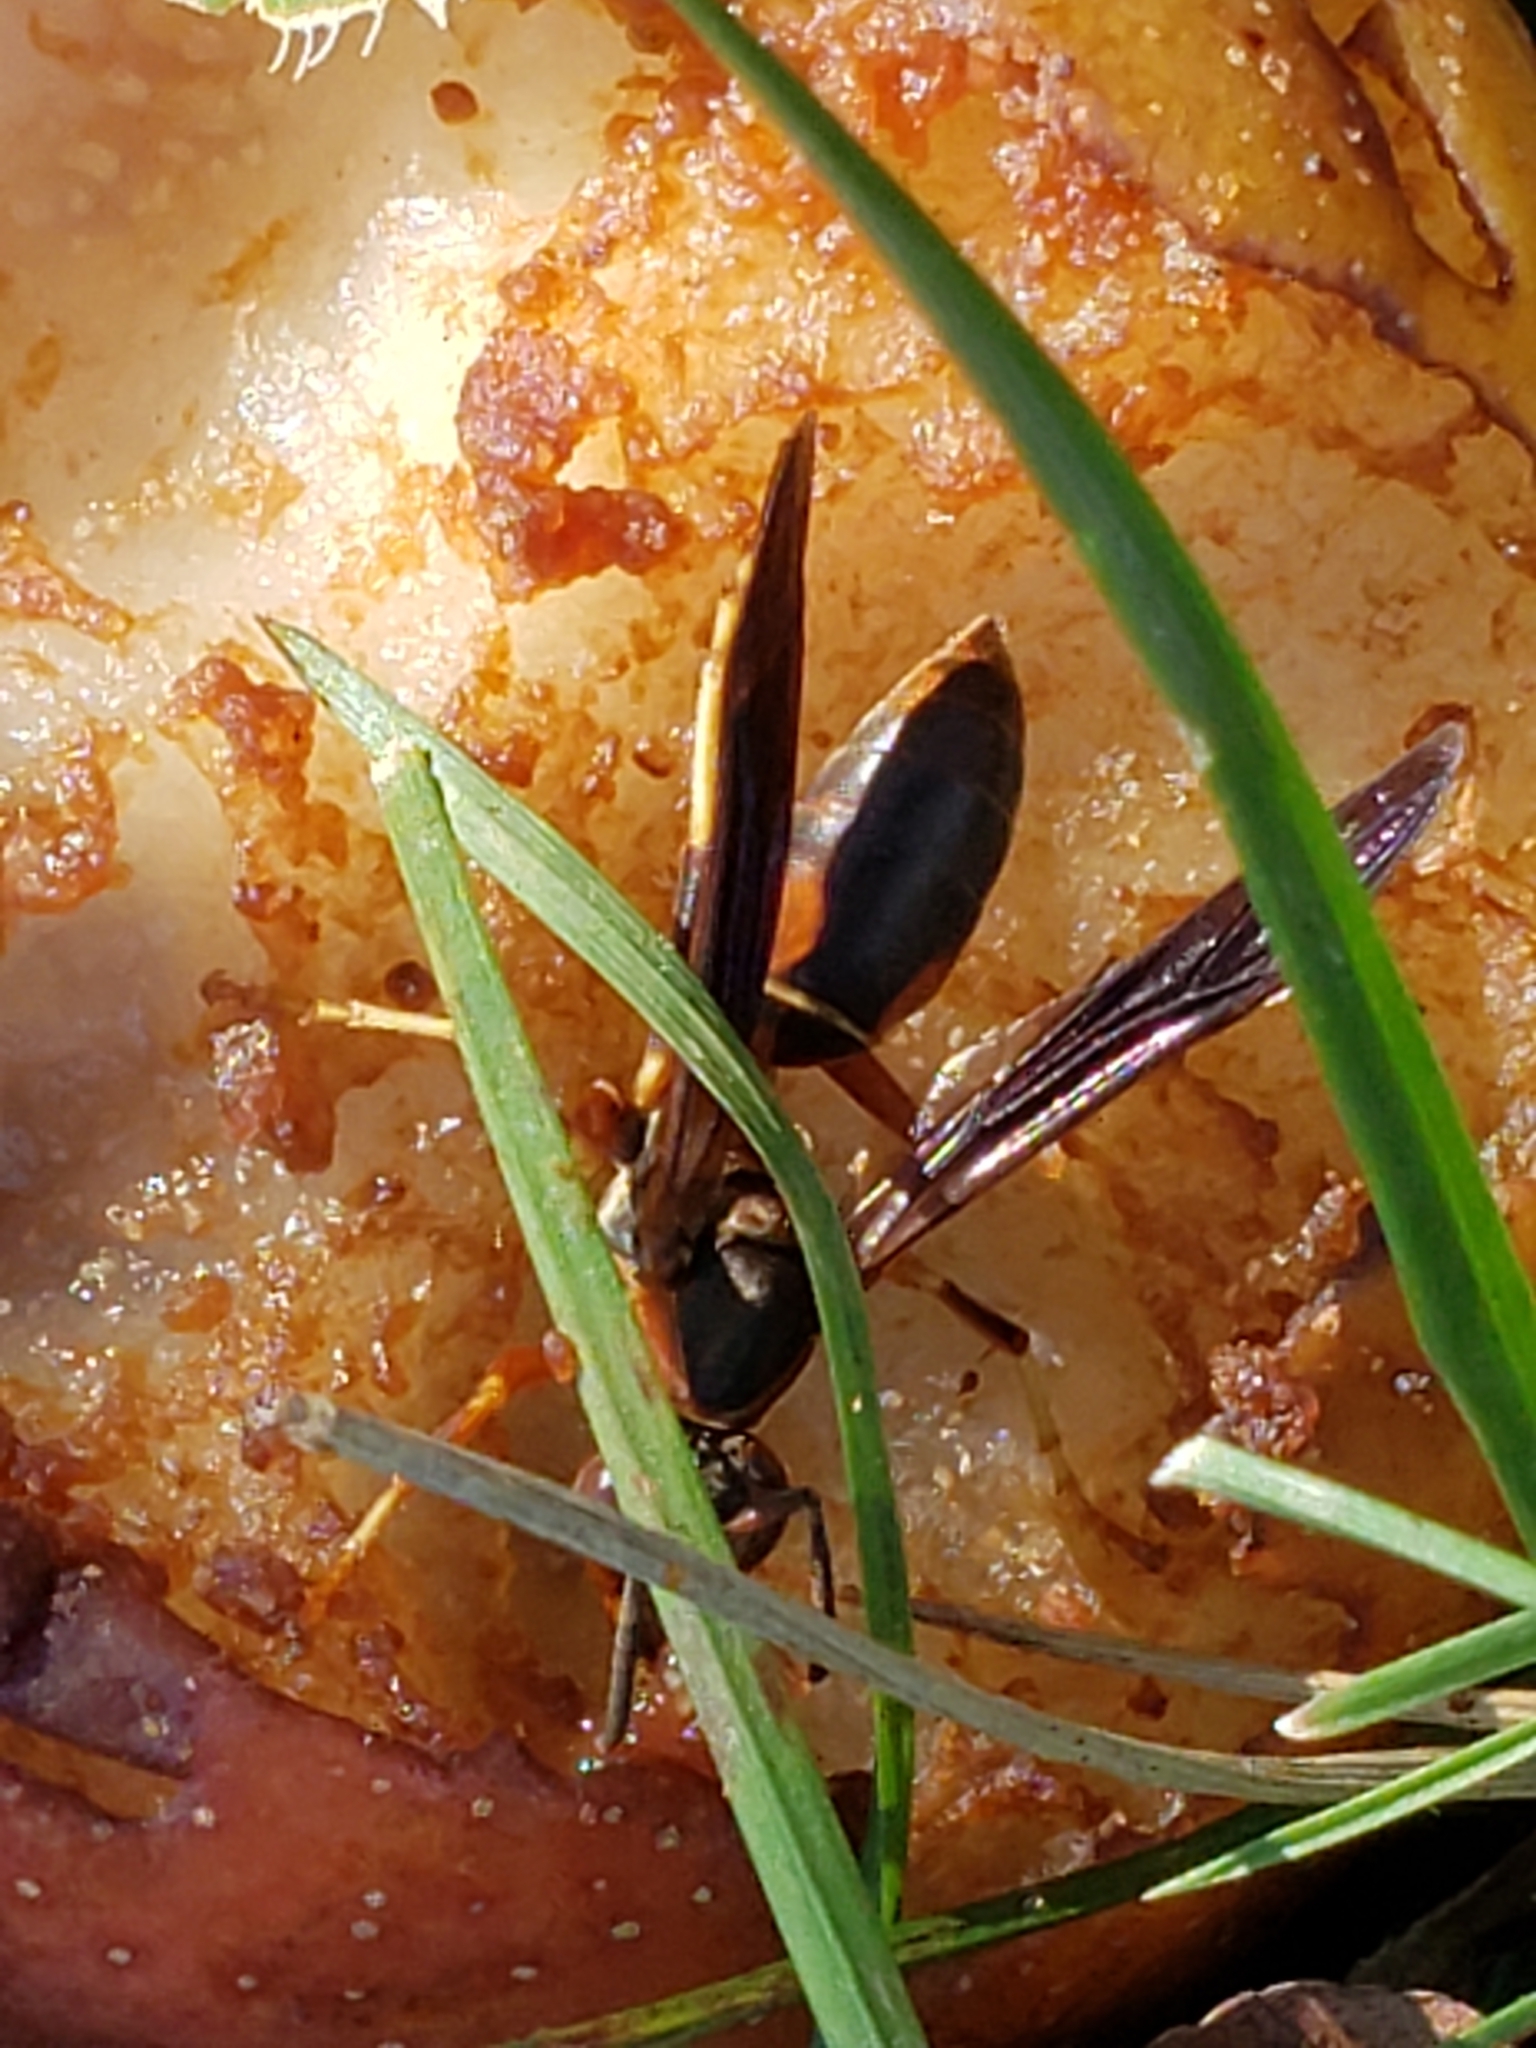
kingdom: Animalia
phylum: Arthropoda
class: Insecta
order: Hymenoptera
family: Eumenidae
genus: Polistes
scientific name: Polistes fuscatus
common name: Dark paper wasp
